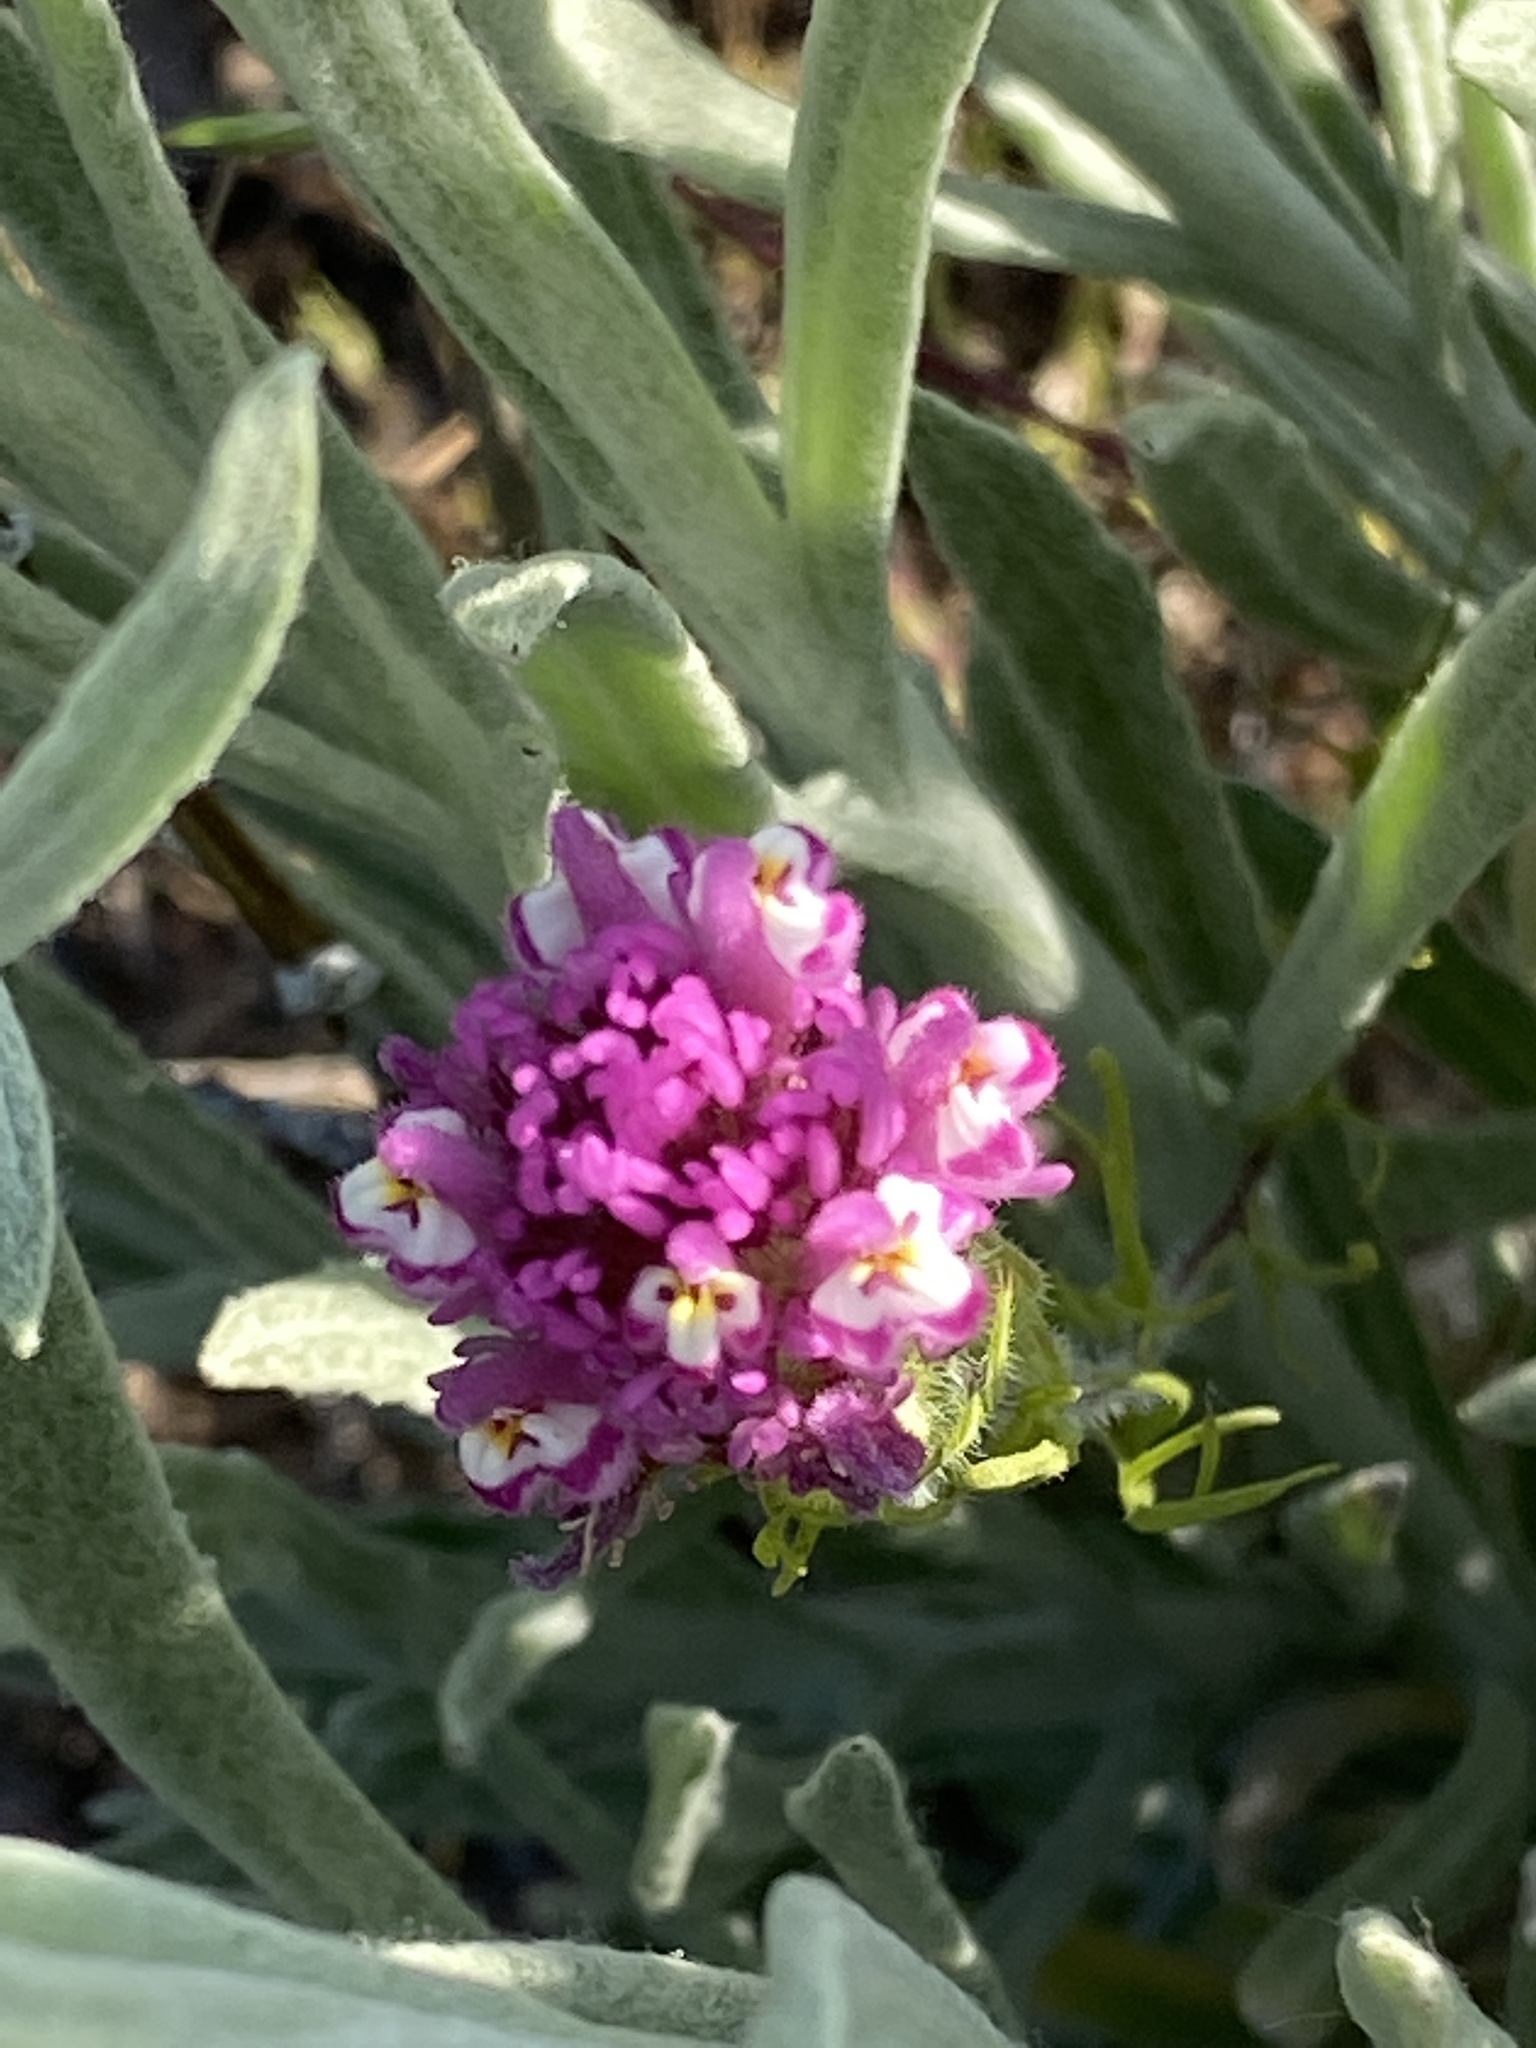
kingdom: Plantae
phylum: Tracheophyta
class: Magnoliopsida
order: Lamiales
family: Orobanchaceae
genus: Castilleja
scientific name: Castilleja exserta
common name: Purple owl-clover
